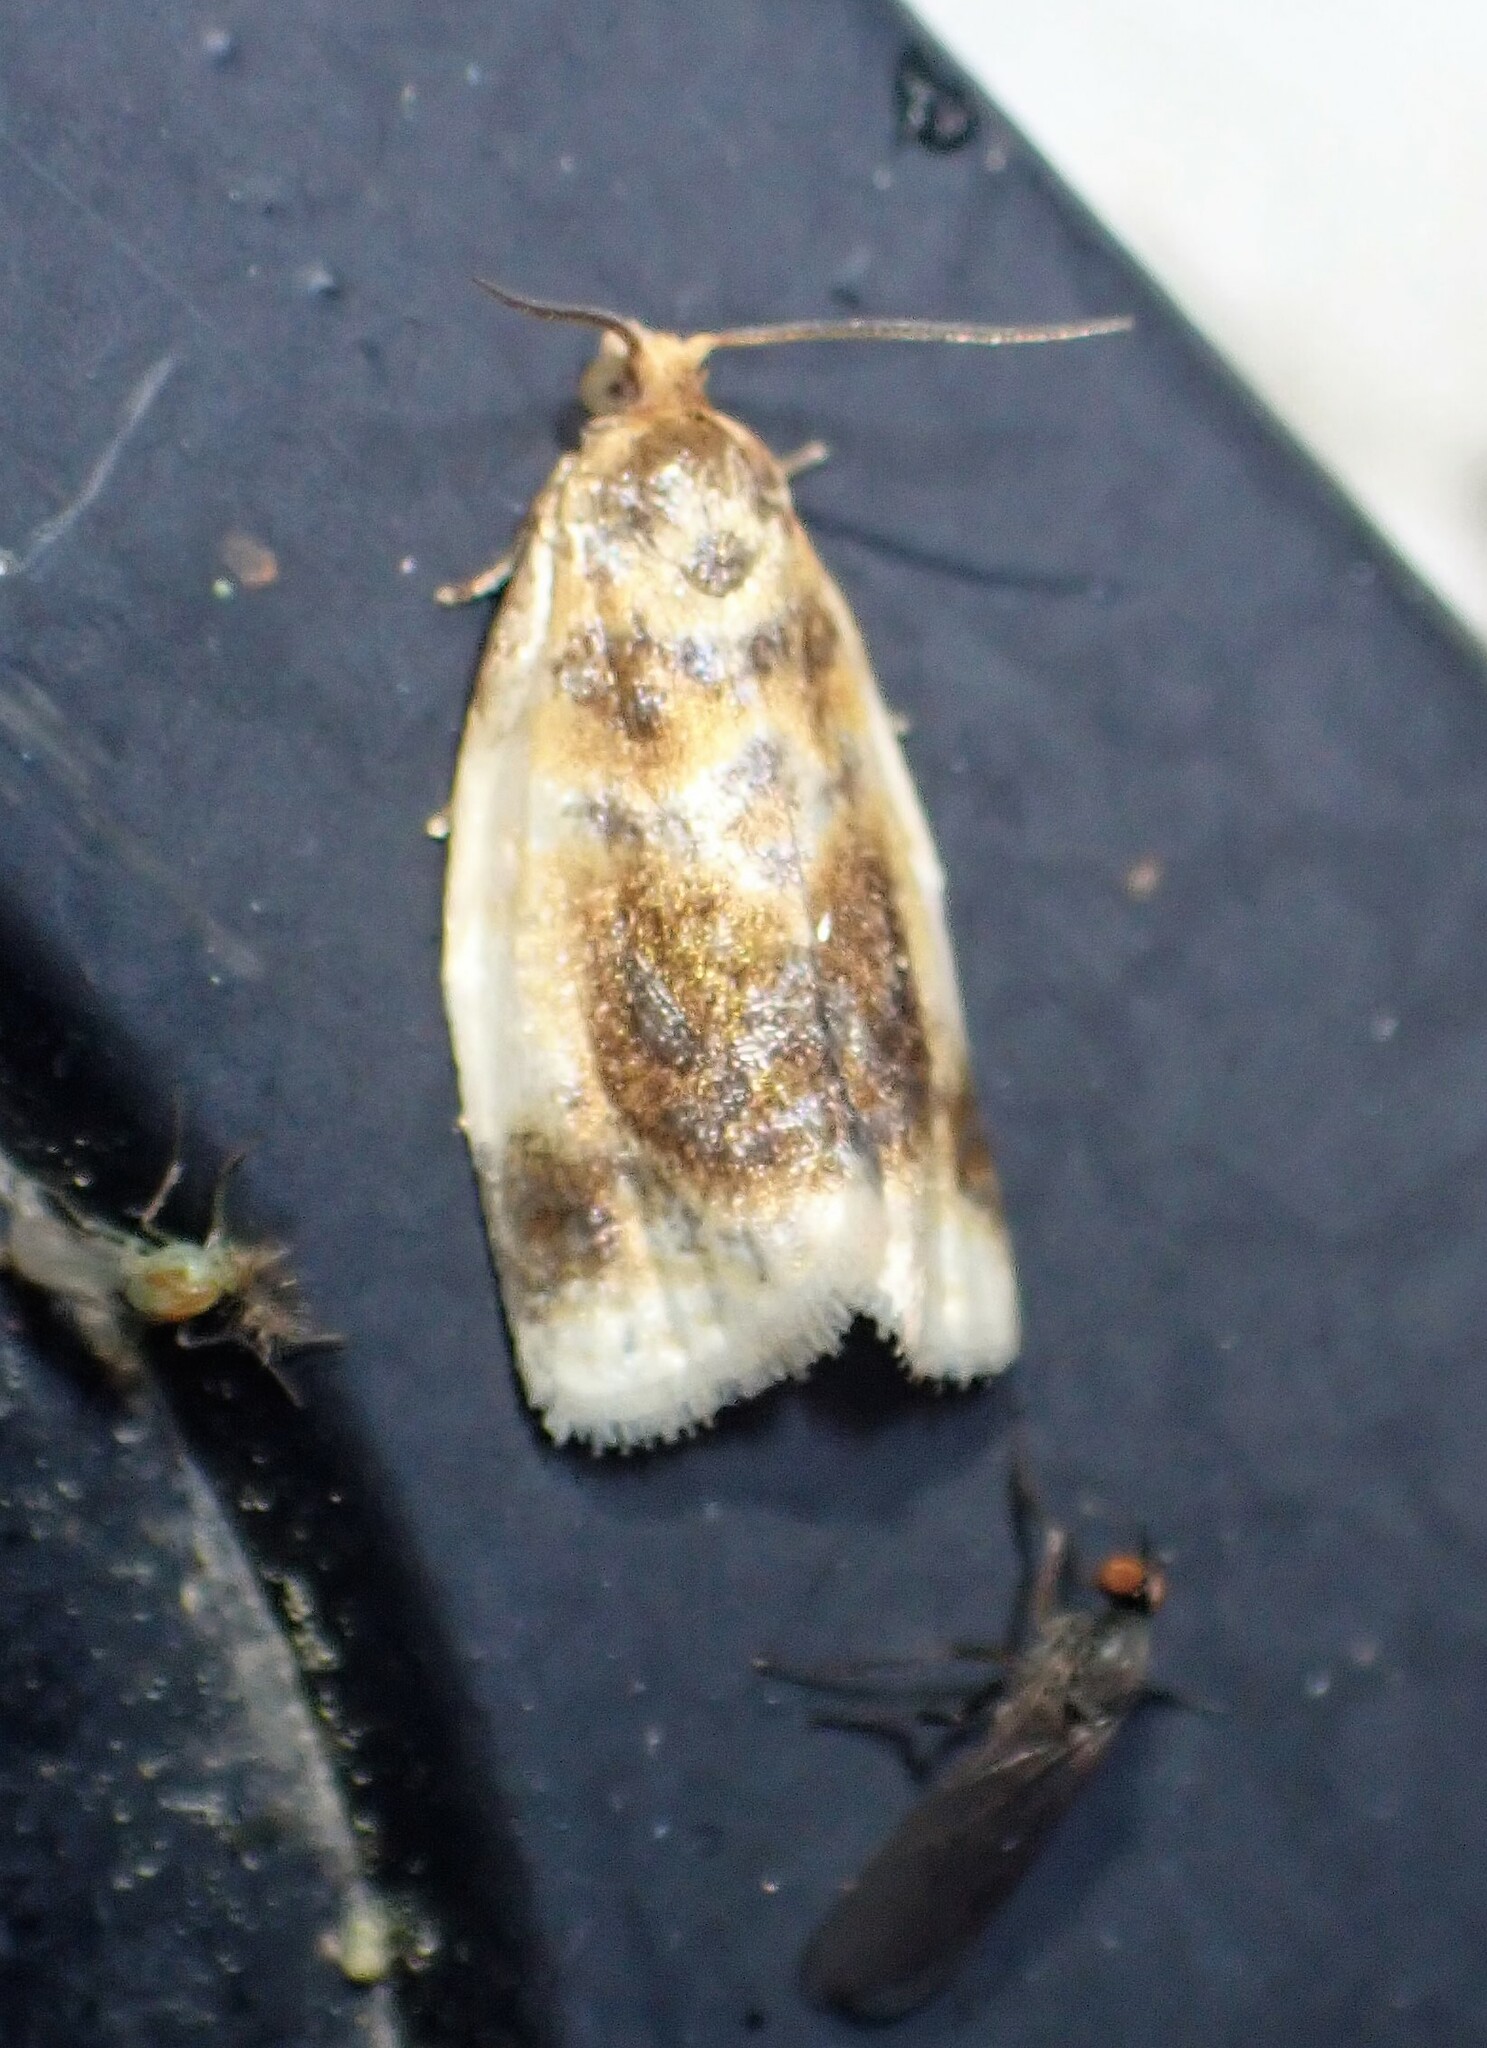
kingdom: Animalia
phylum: Arthropoda
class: Insecta
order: Lepidoptera
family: Tortricidae
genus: Clepsis
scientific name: Clepsis melaleucanus
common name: American apple tortrix
